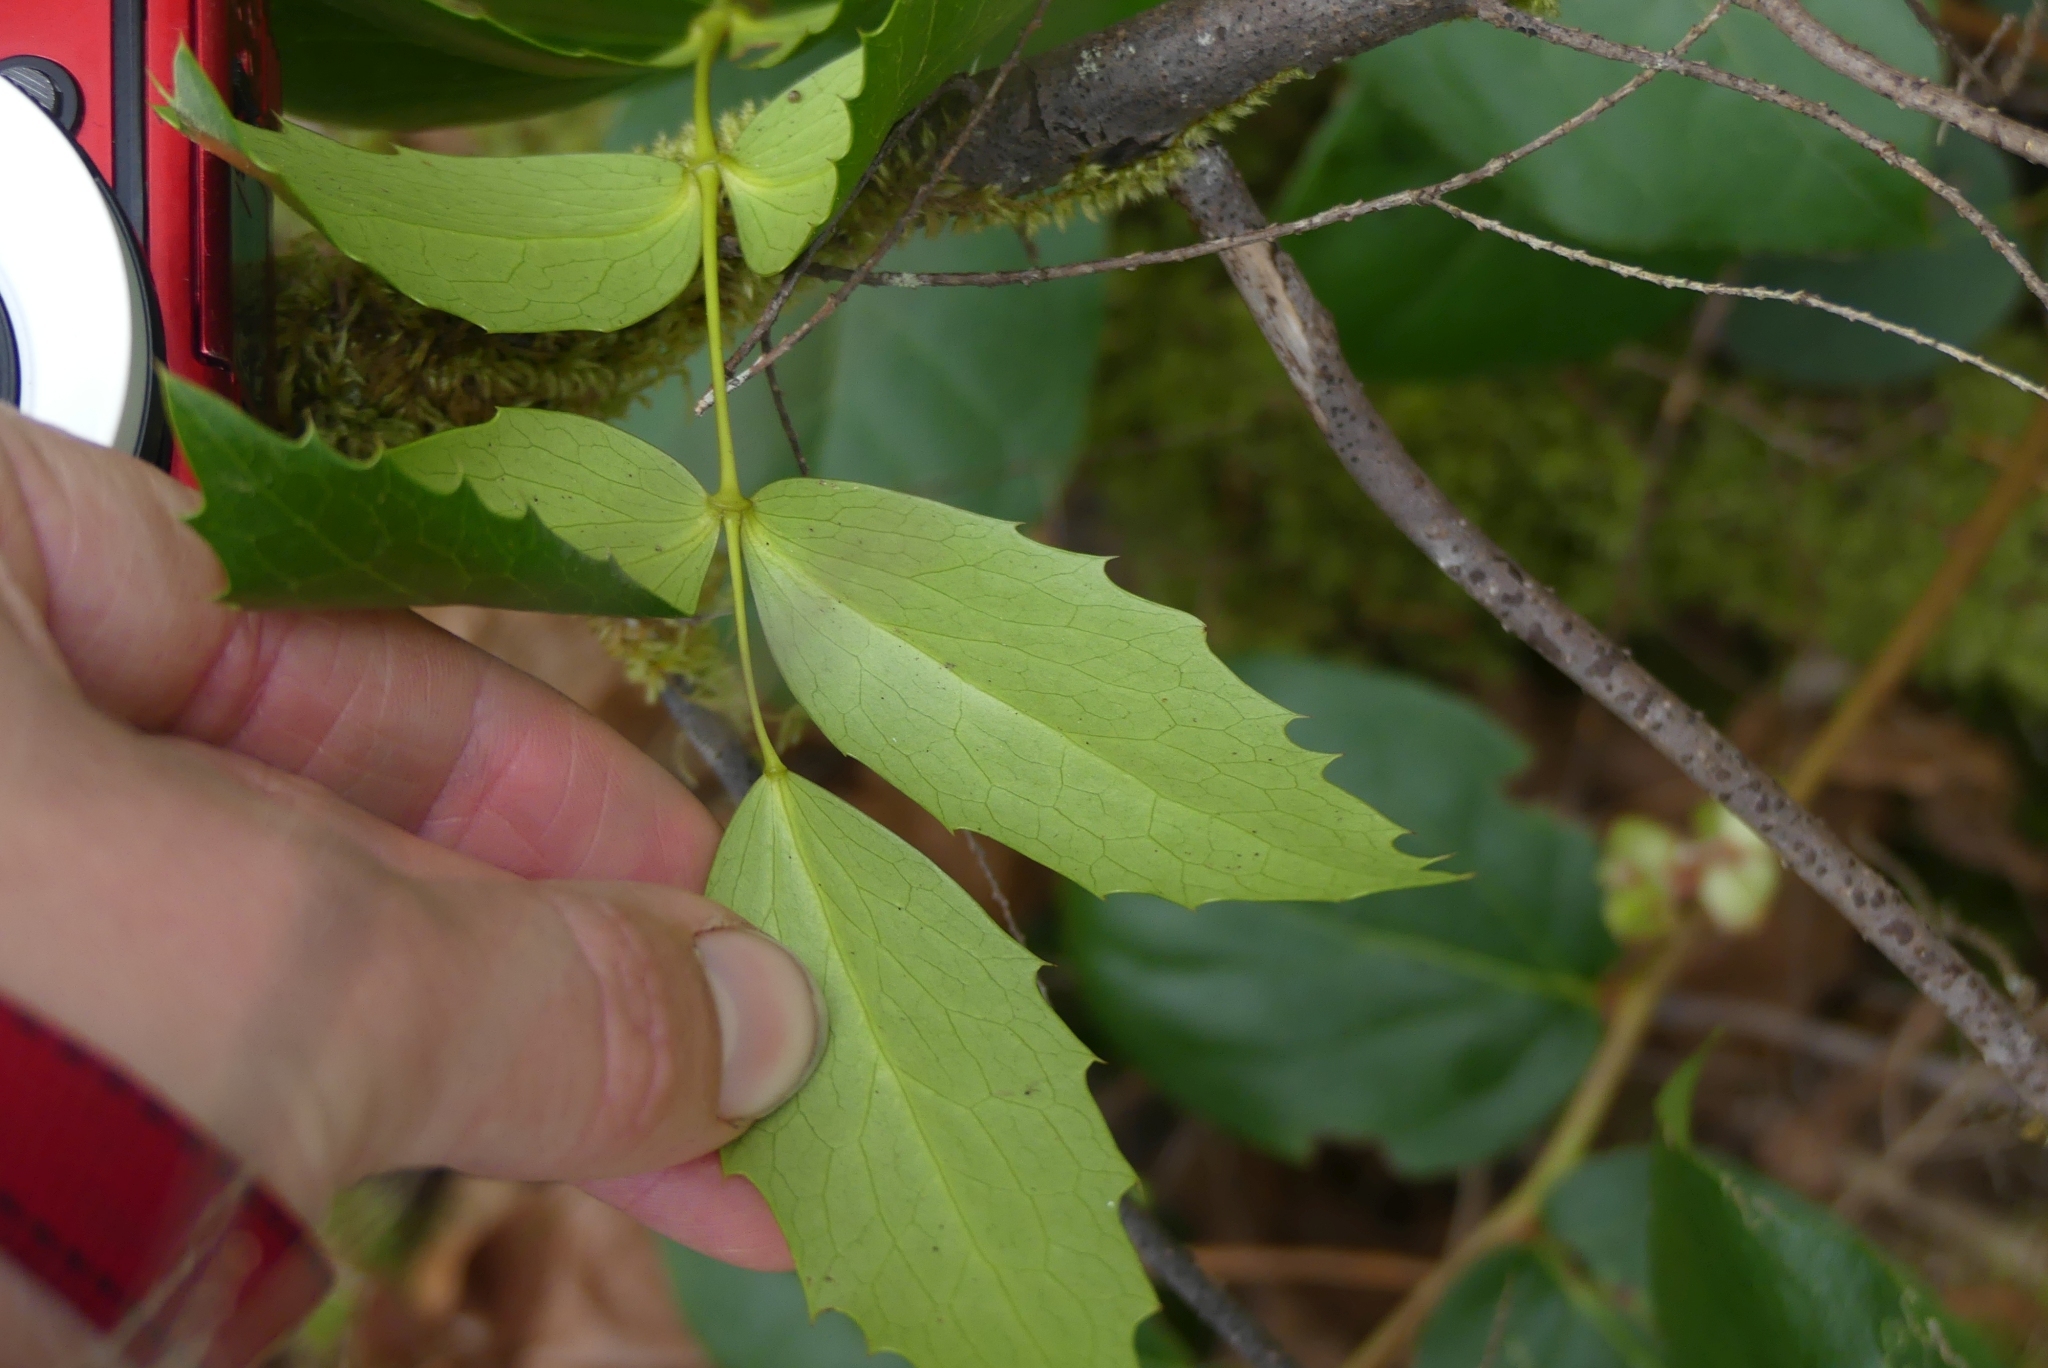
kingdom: Plantae
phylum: Tracheophyta
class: Magnoliopsida
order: Ranunculales
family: Berberidaceae
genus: Mahonia
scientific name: Mahonia nervosa
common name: Cascade oregon-grape
